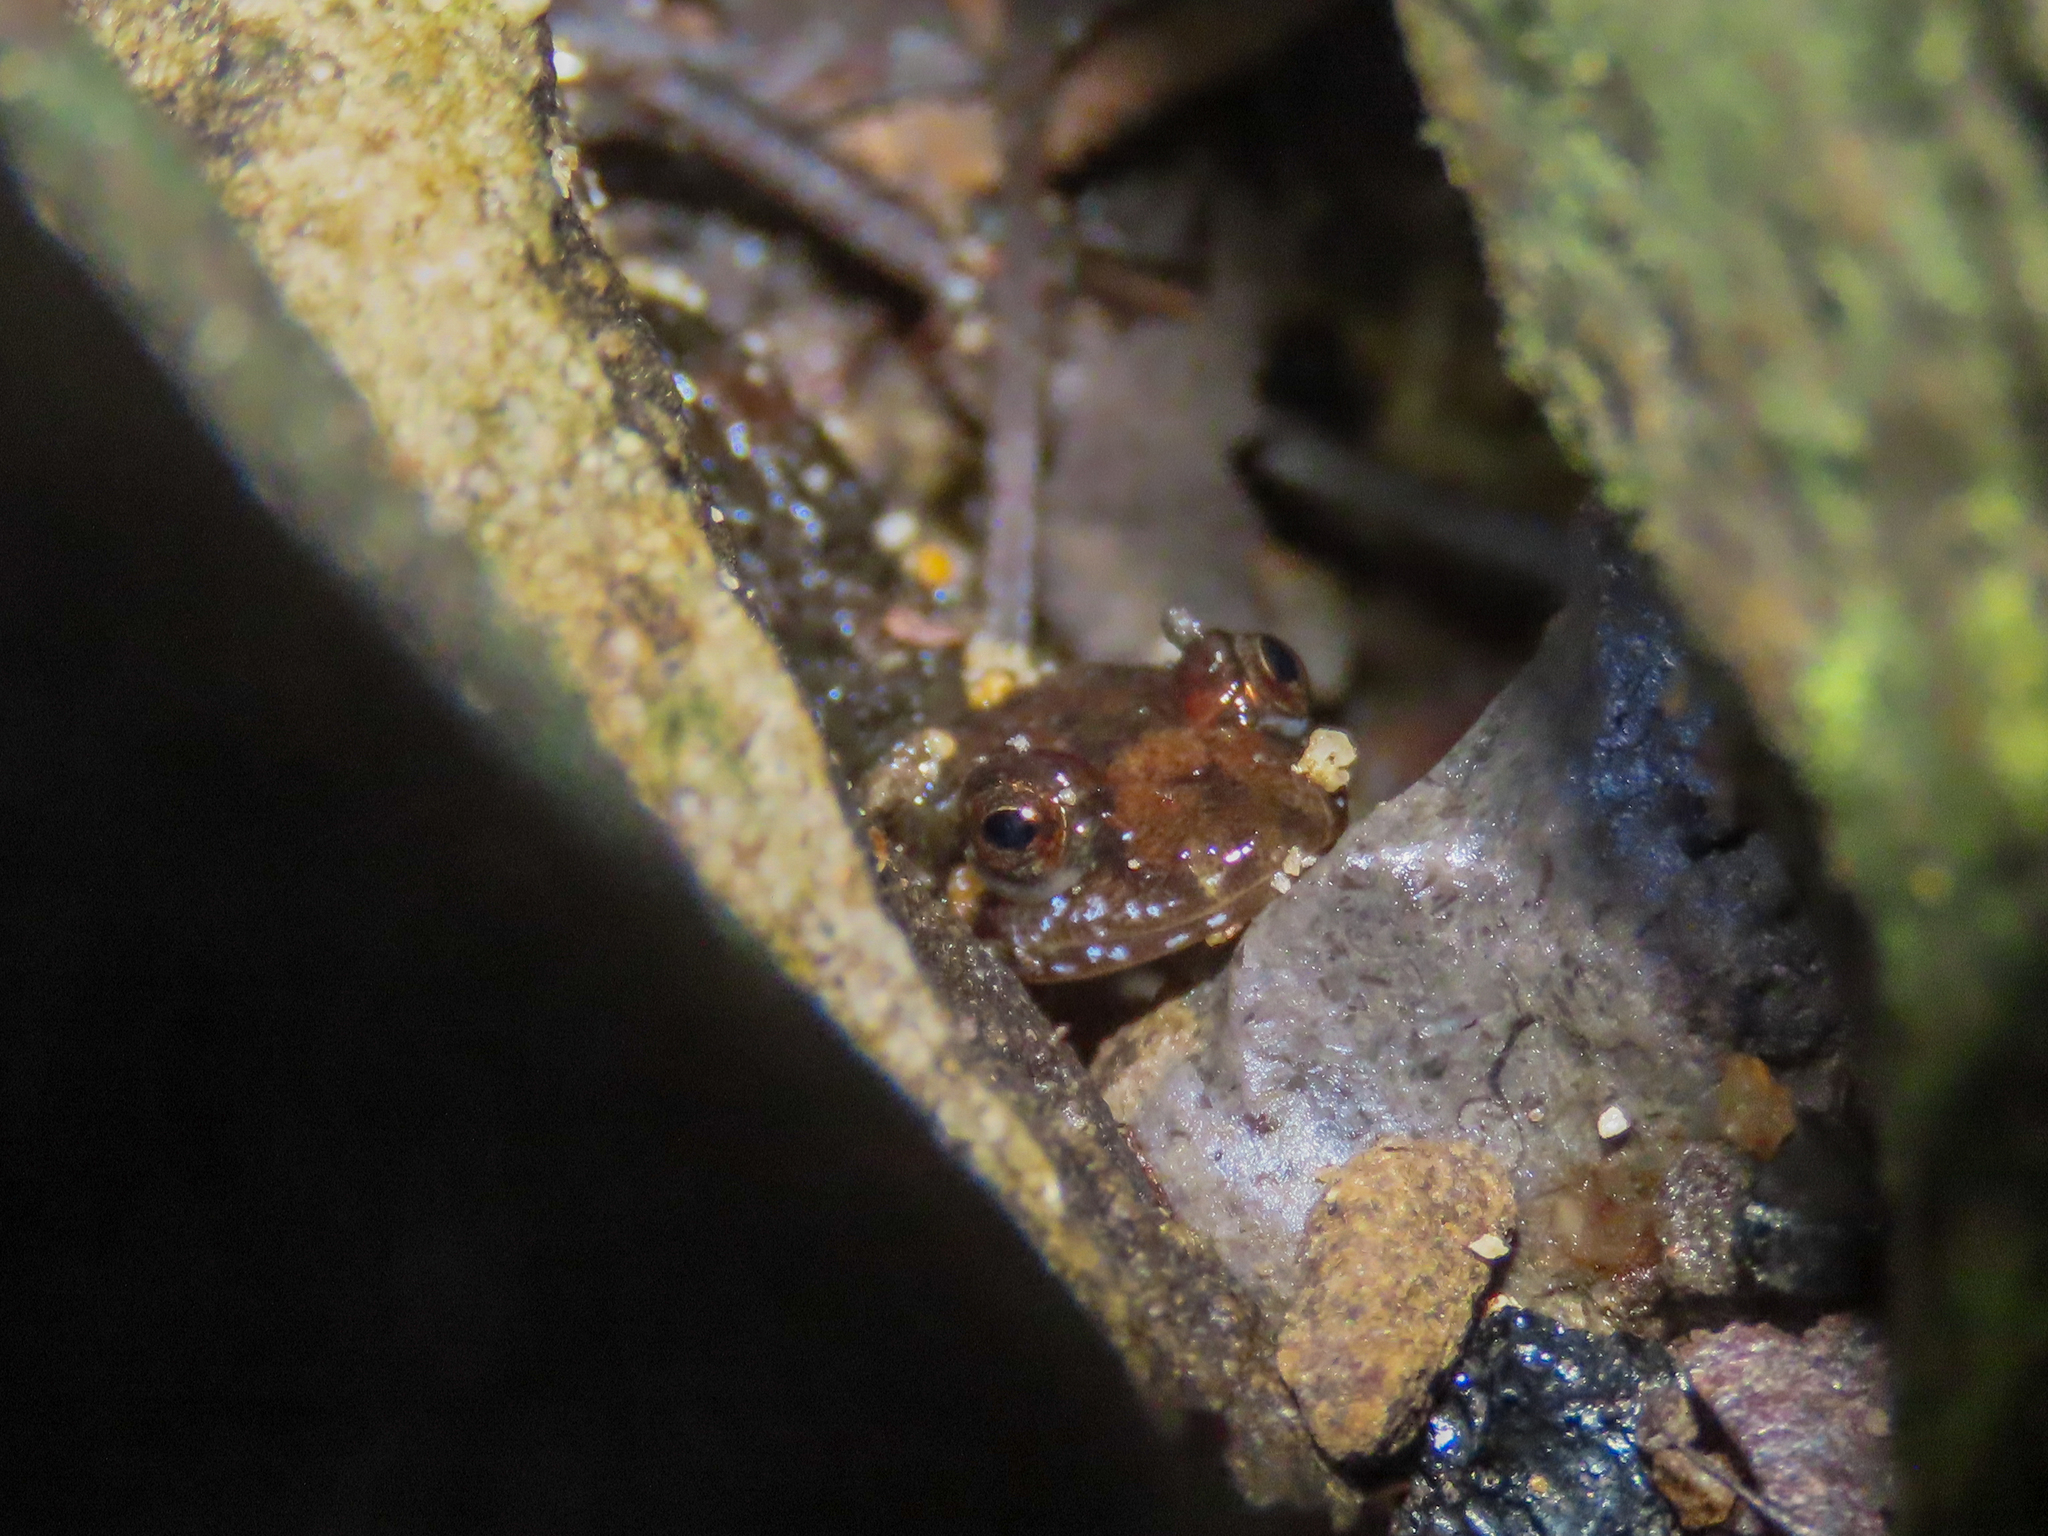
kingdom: Animalia
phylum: Chordata
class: Amphibia
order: Caudata
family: Plethodontidae
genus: Desmognathus
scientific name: Desmognathus monticola
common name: Seal salamander
